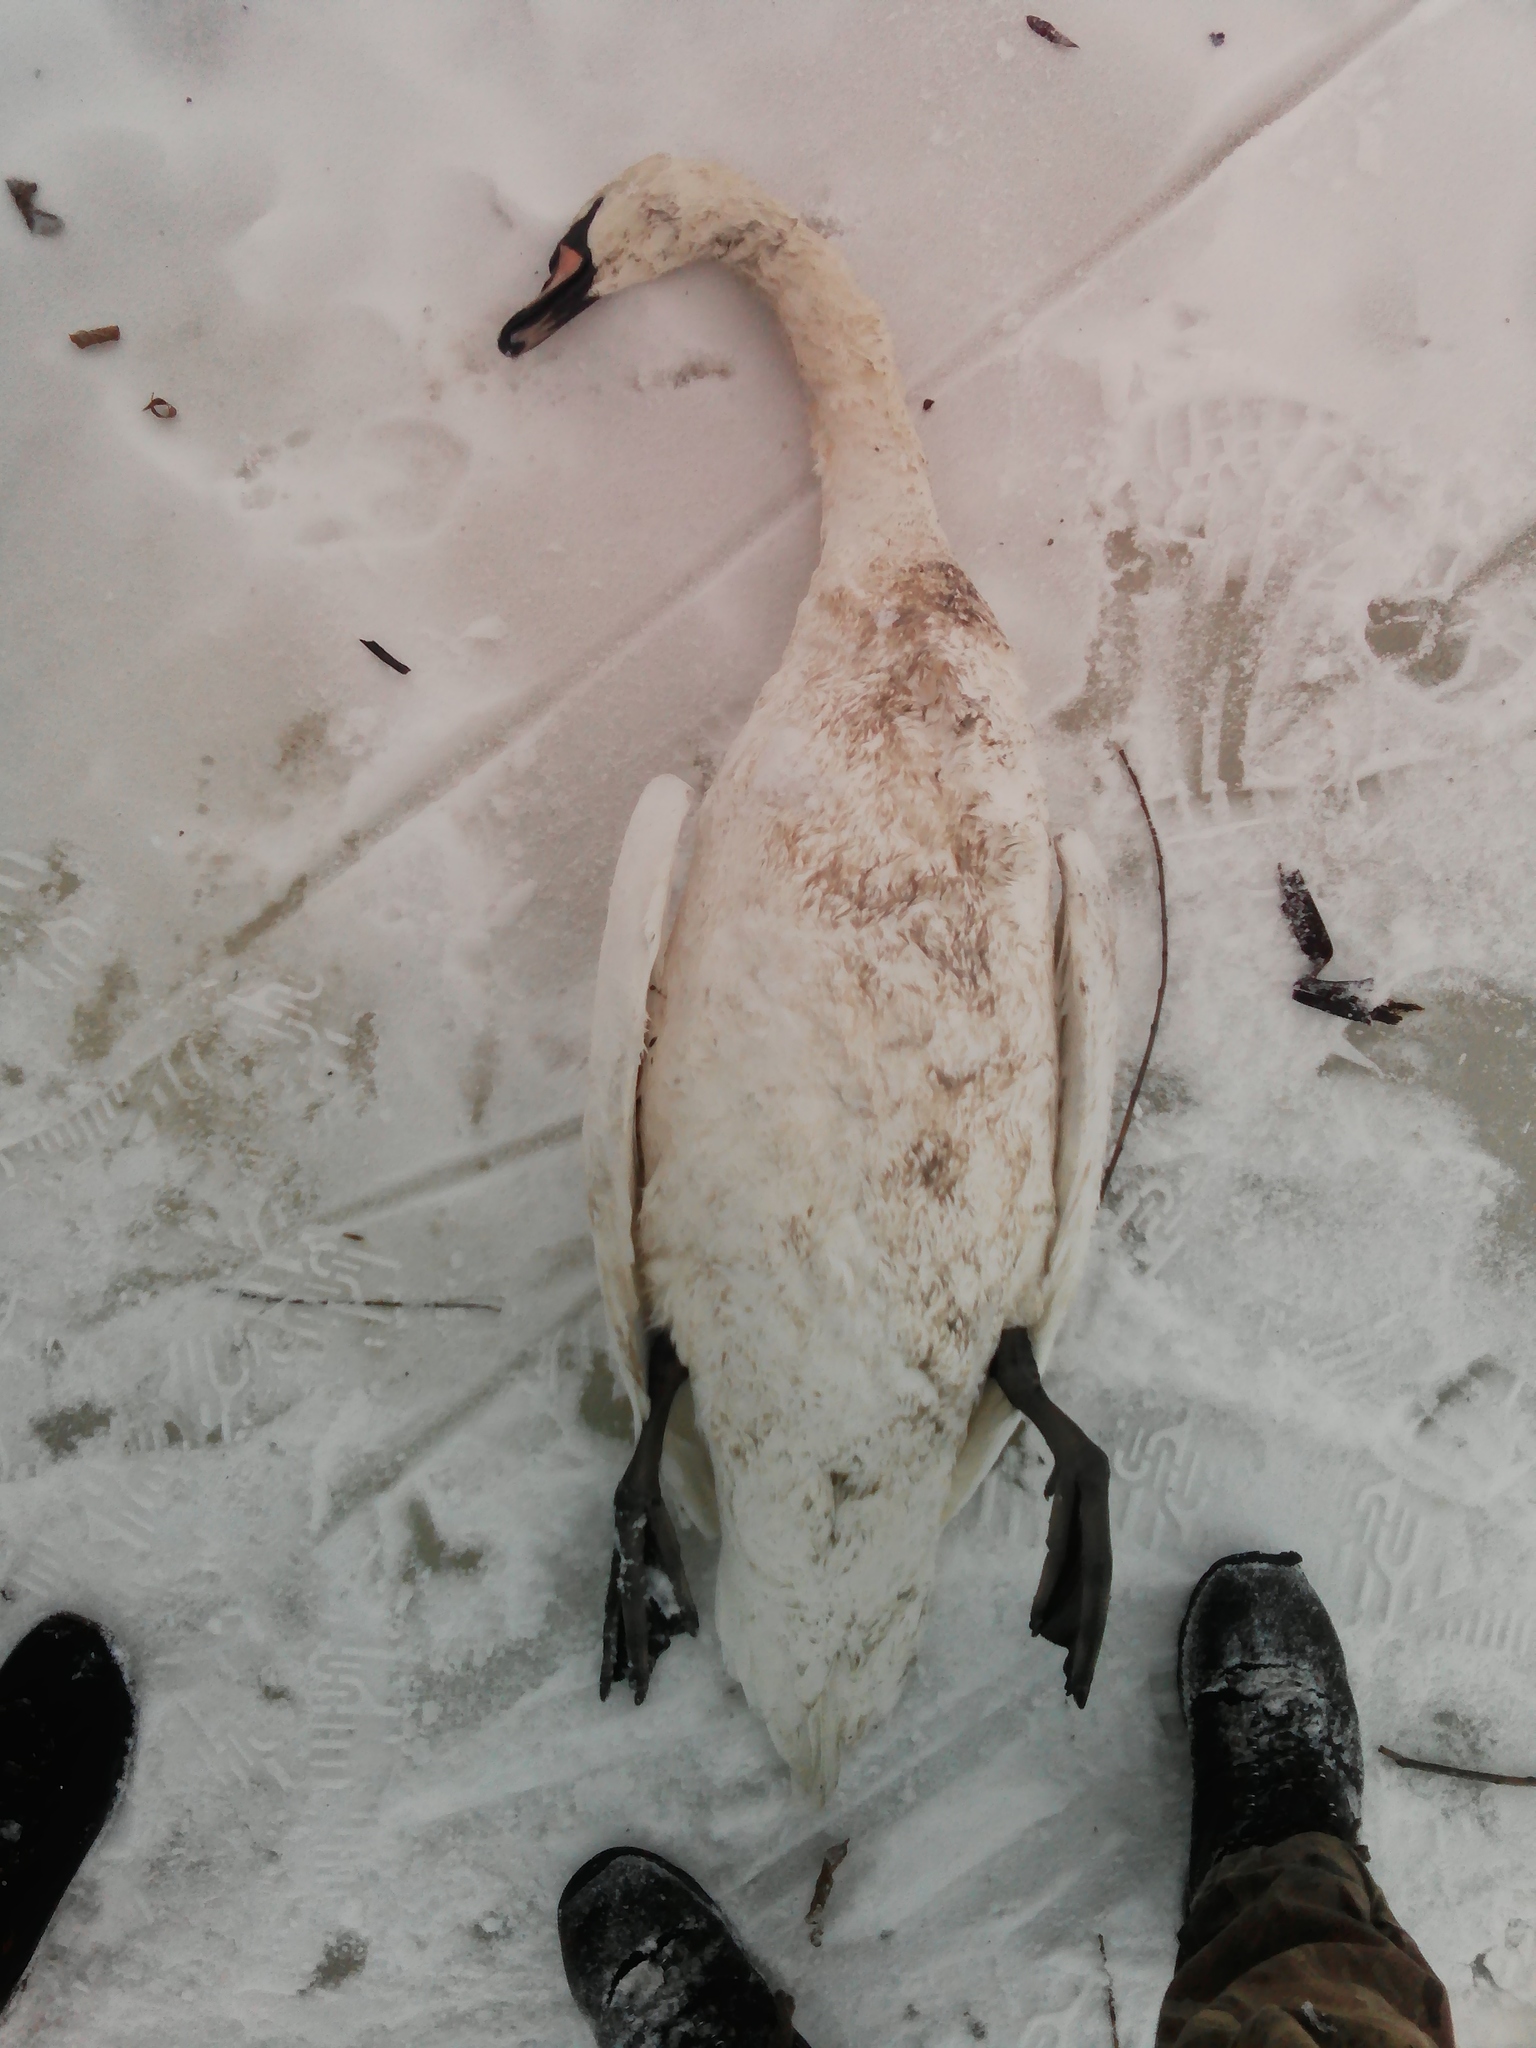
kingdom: Animalia
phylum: Chordata
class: Aves
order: Anseriformes
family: Anatidae
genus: Cygnus
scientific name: Cygnus olor
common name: Mute swan
